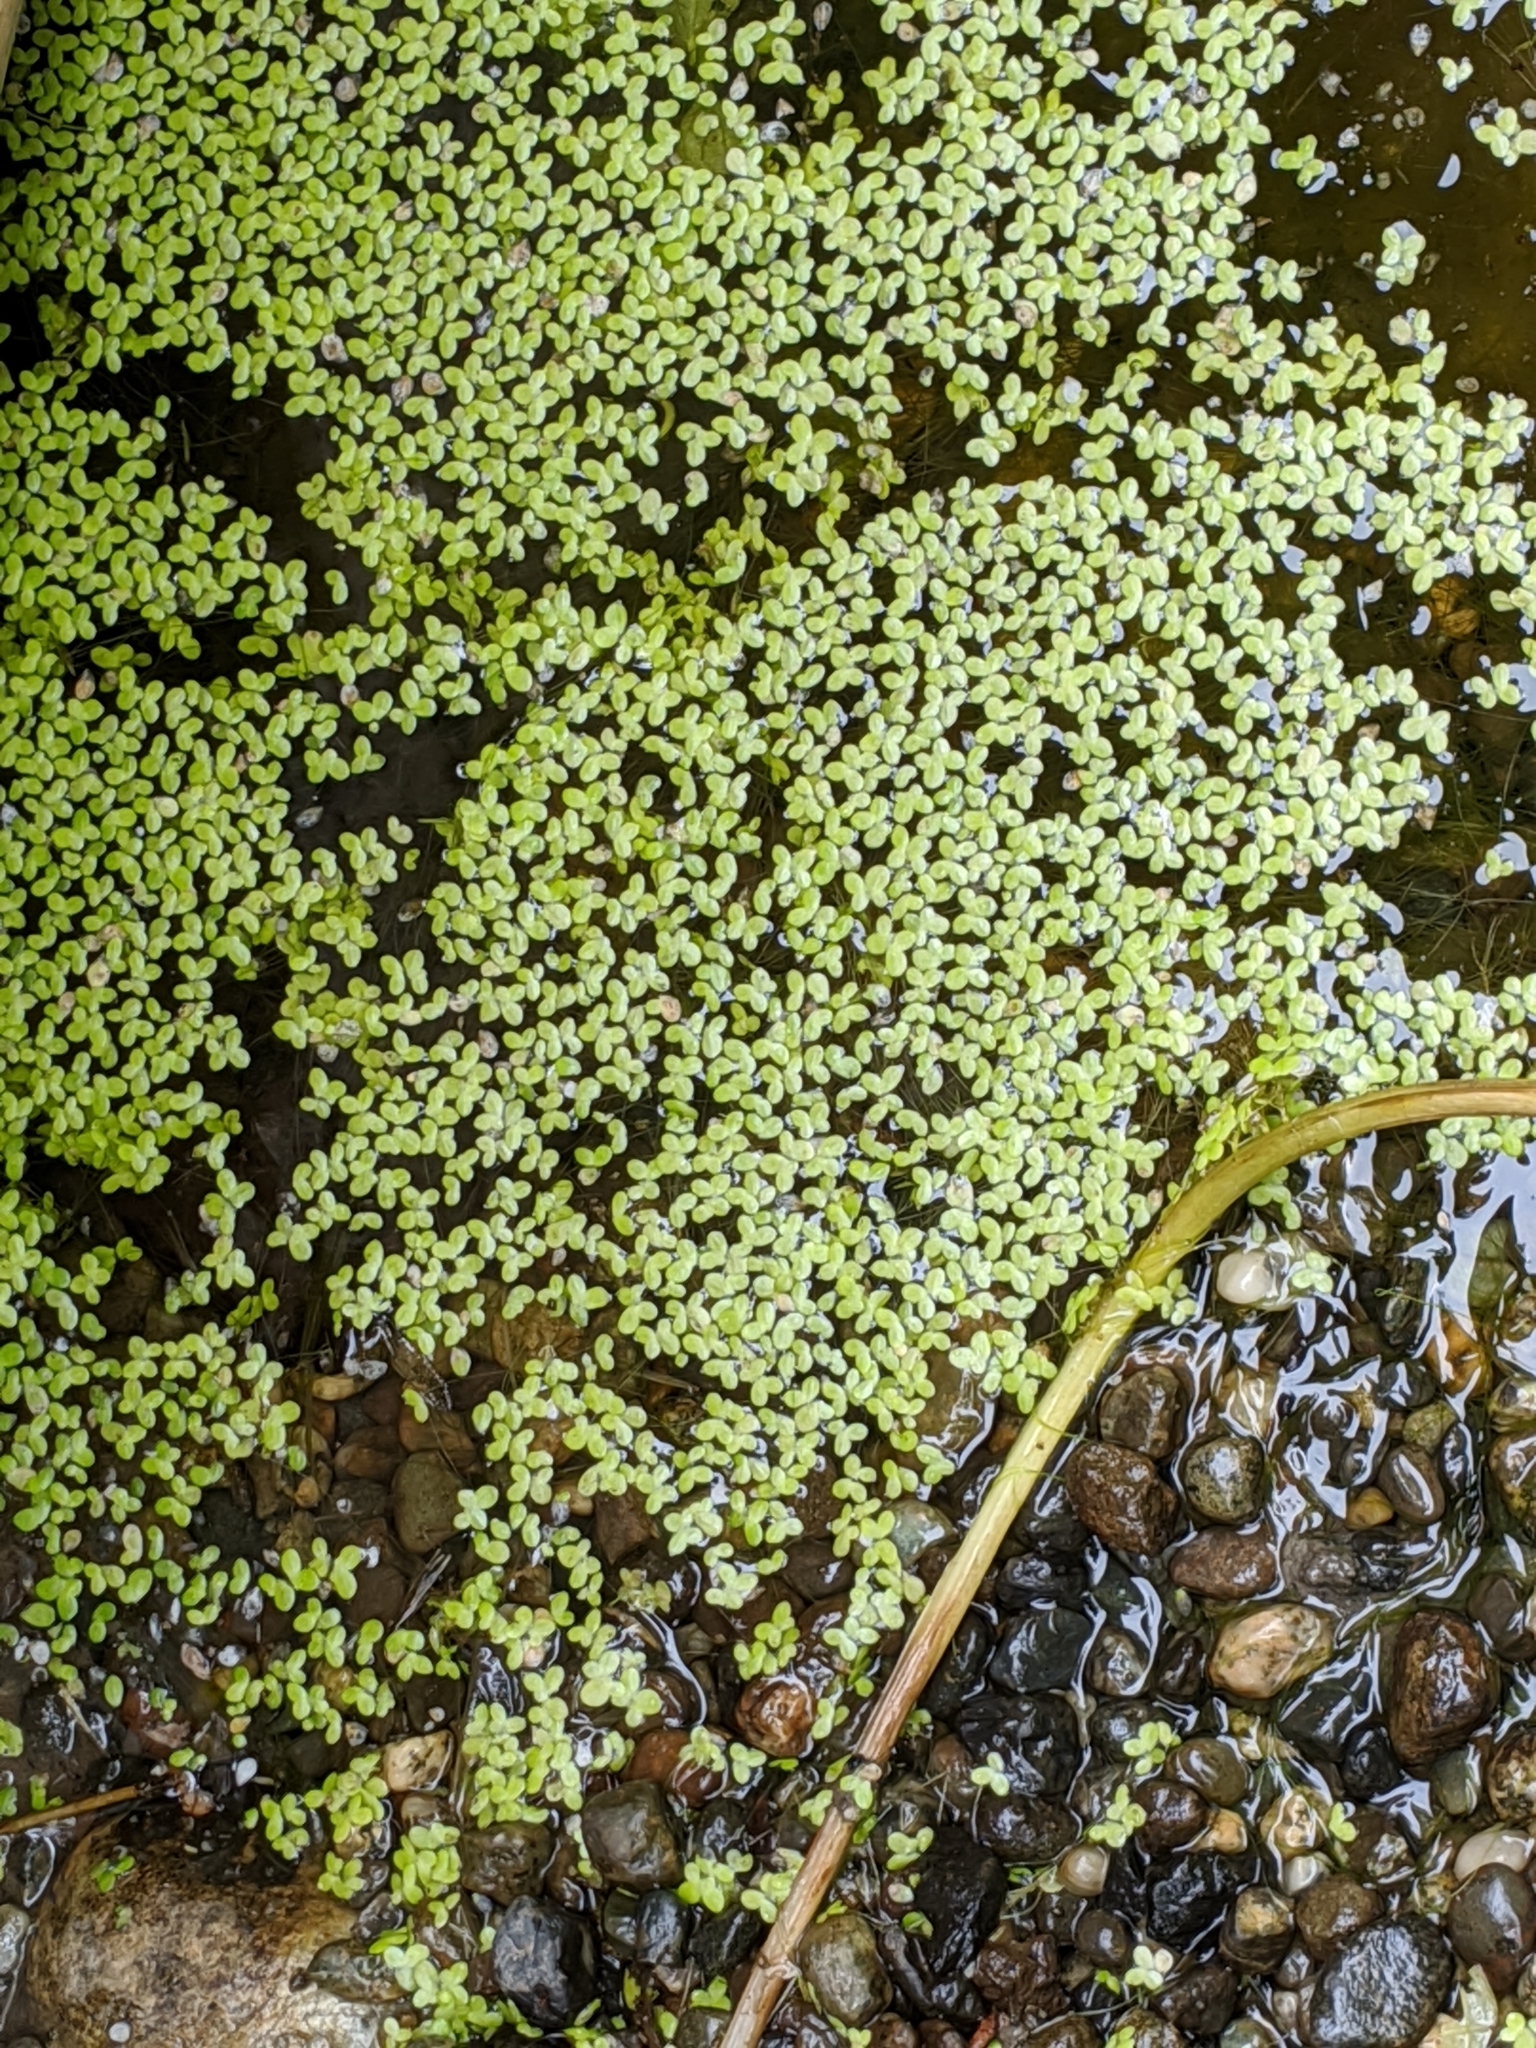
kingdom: Plantae
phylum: Tracheophyta
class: Liliopsida
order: Alismatales
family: Araceae
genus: Lemna
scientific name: Lemna minor
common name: Common duckweed
